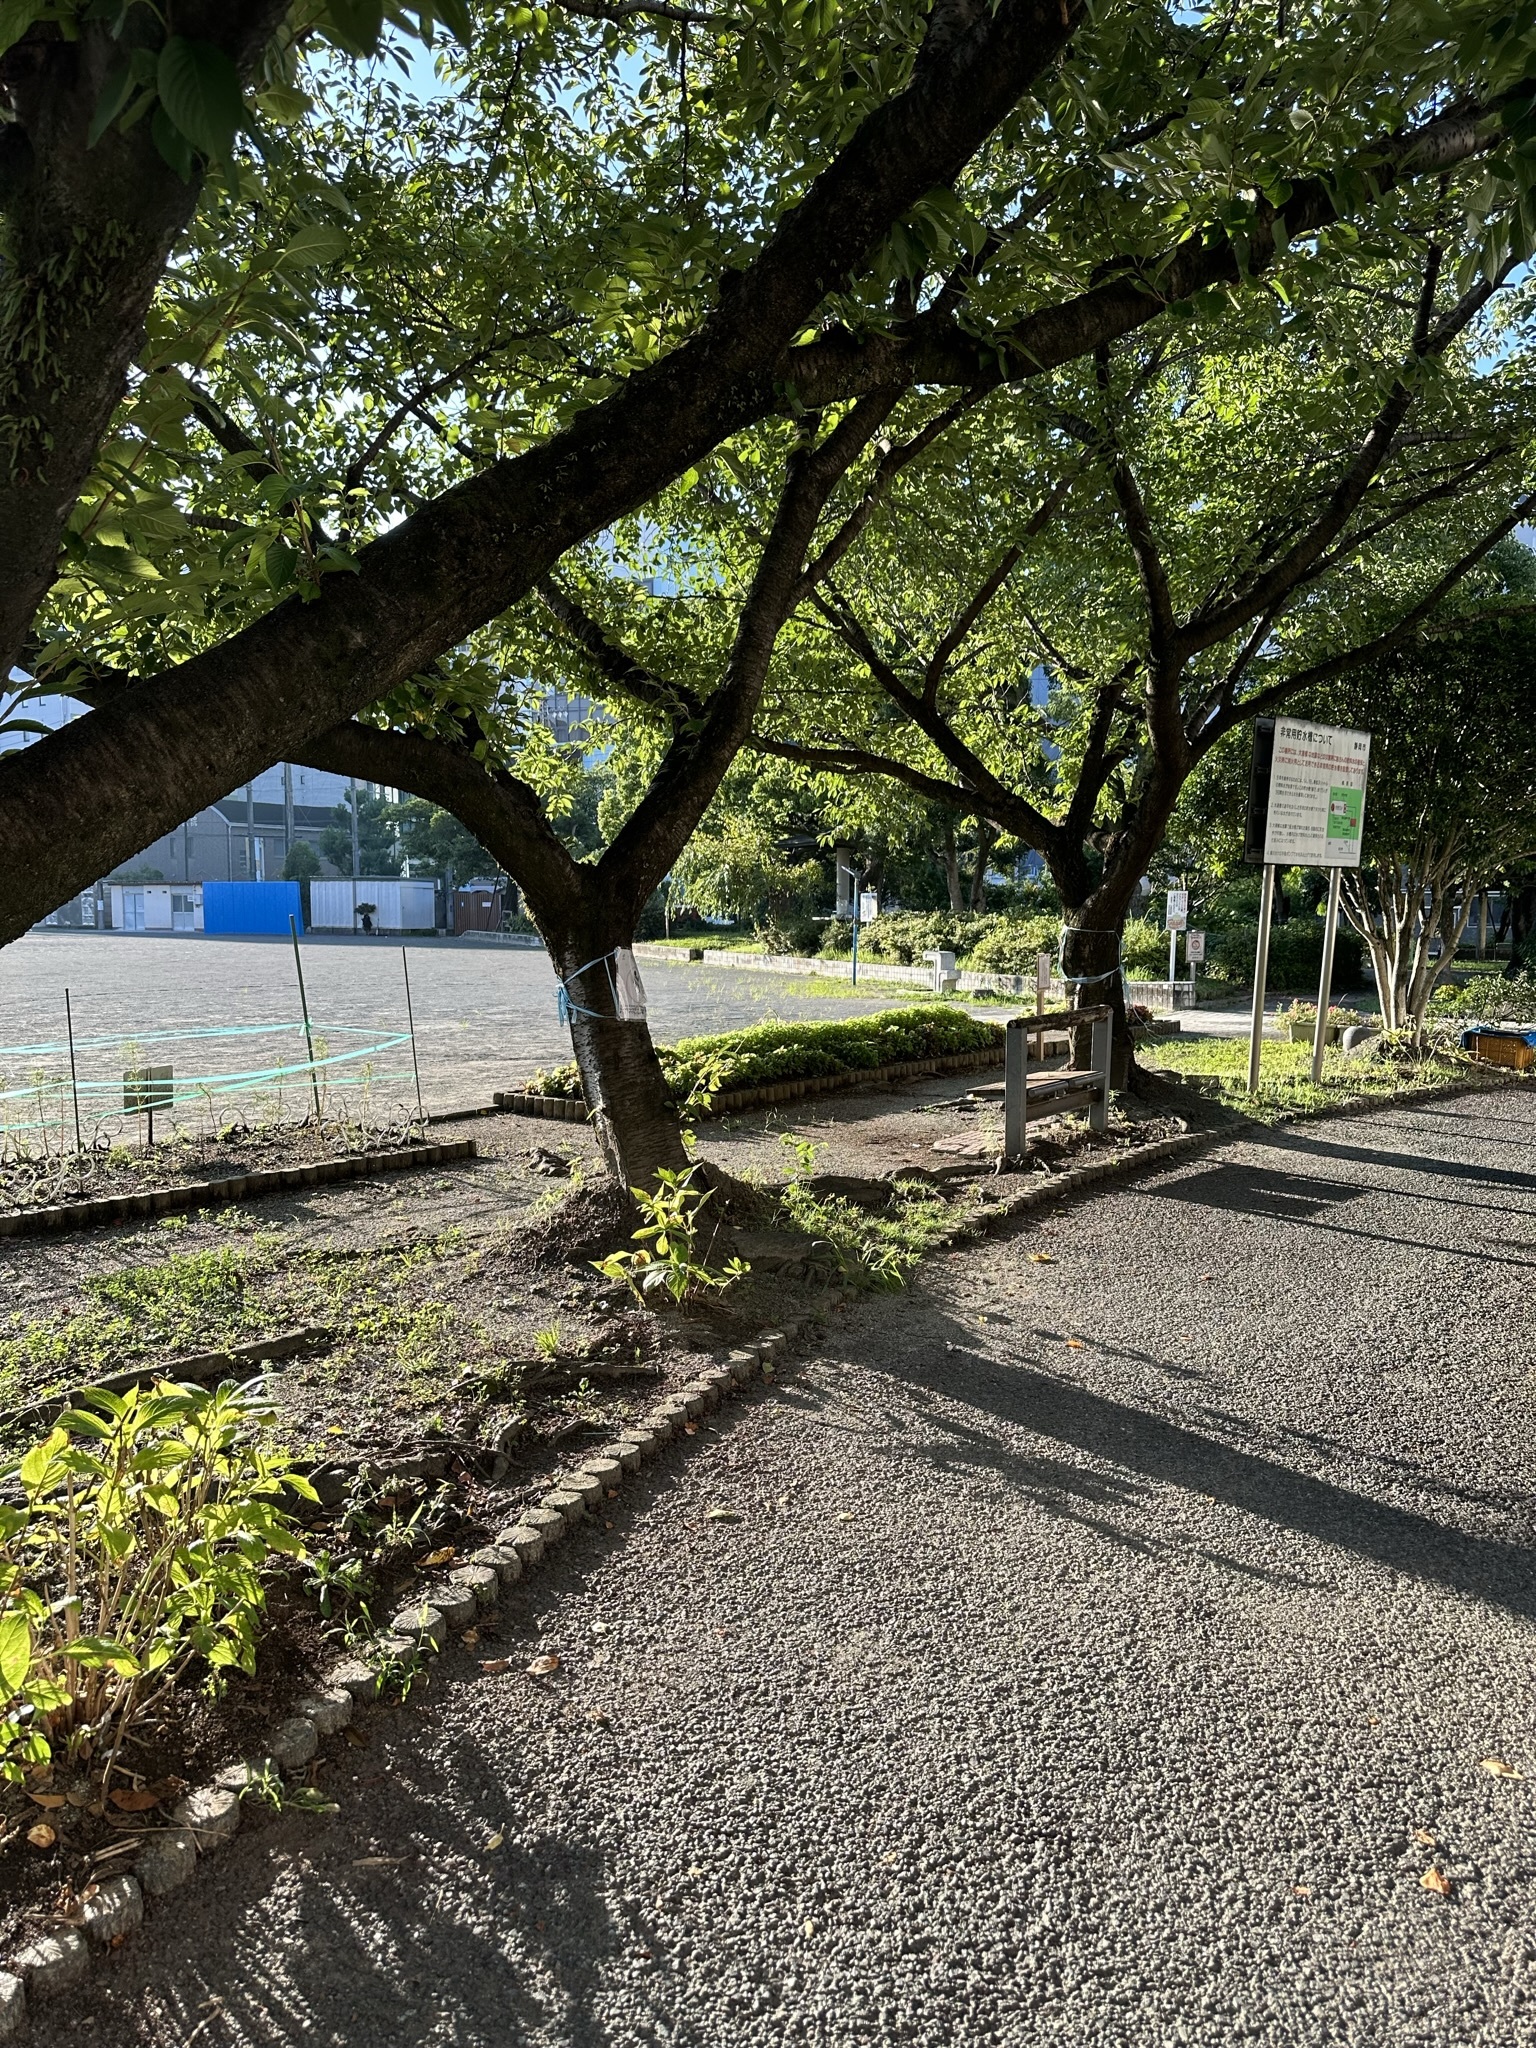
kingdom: Animalia
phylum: Arthropoda
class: Insecta
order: Hemiptera
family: Cicadidae
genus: Cryptotympana
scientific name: Cryptotympana facialis
